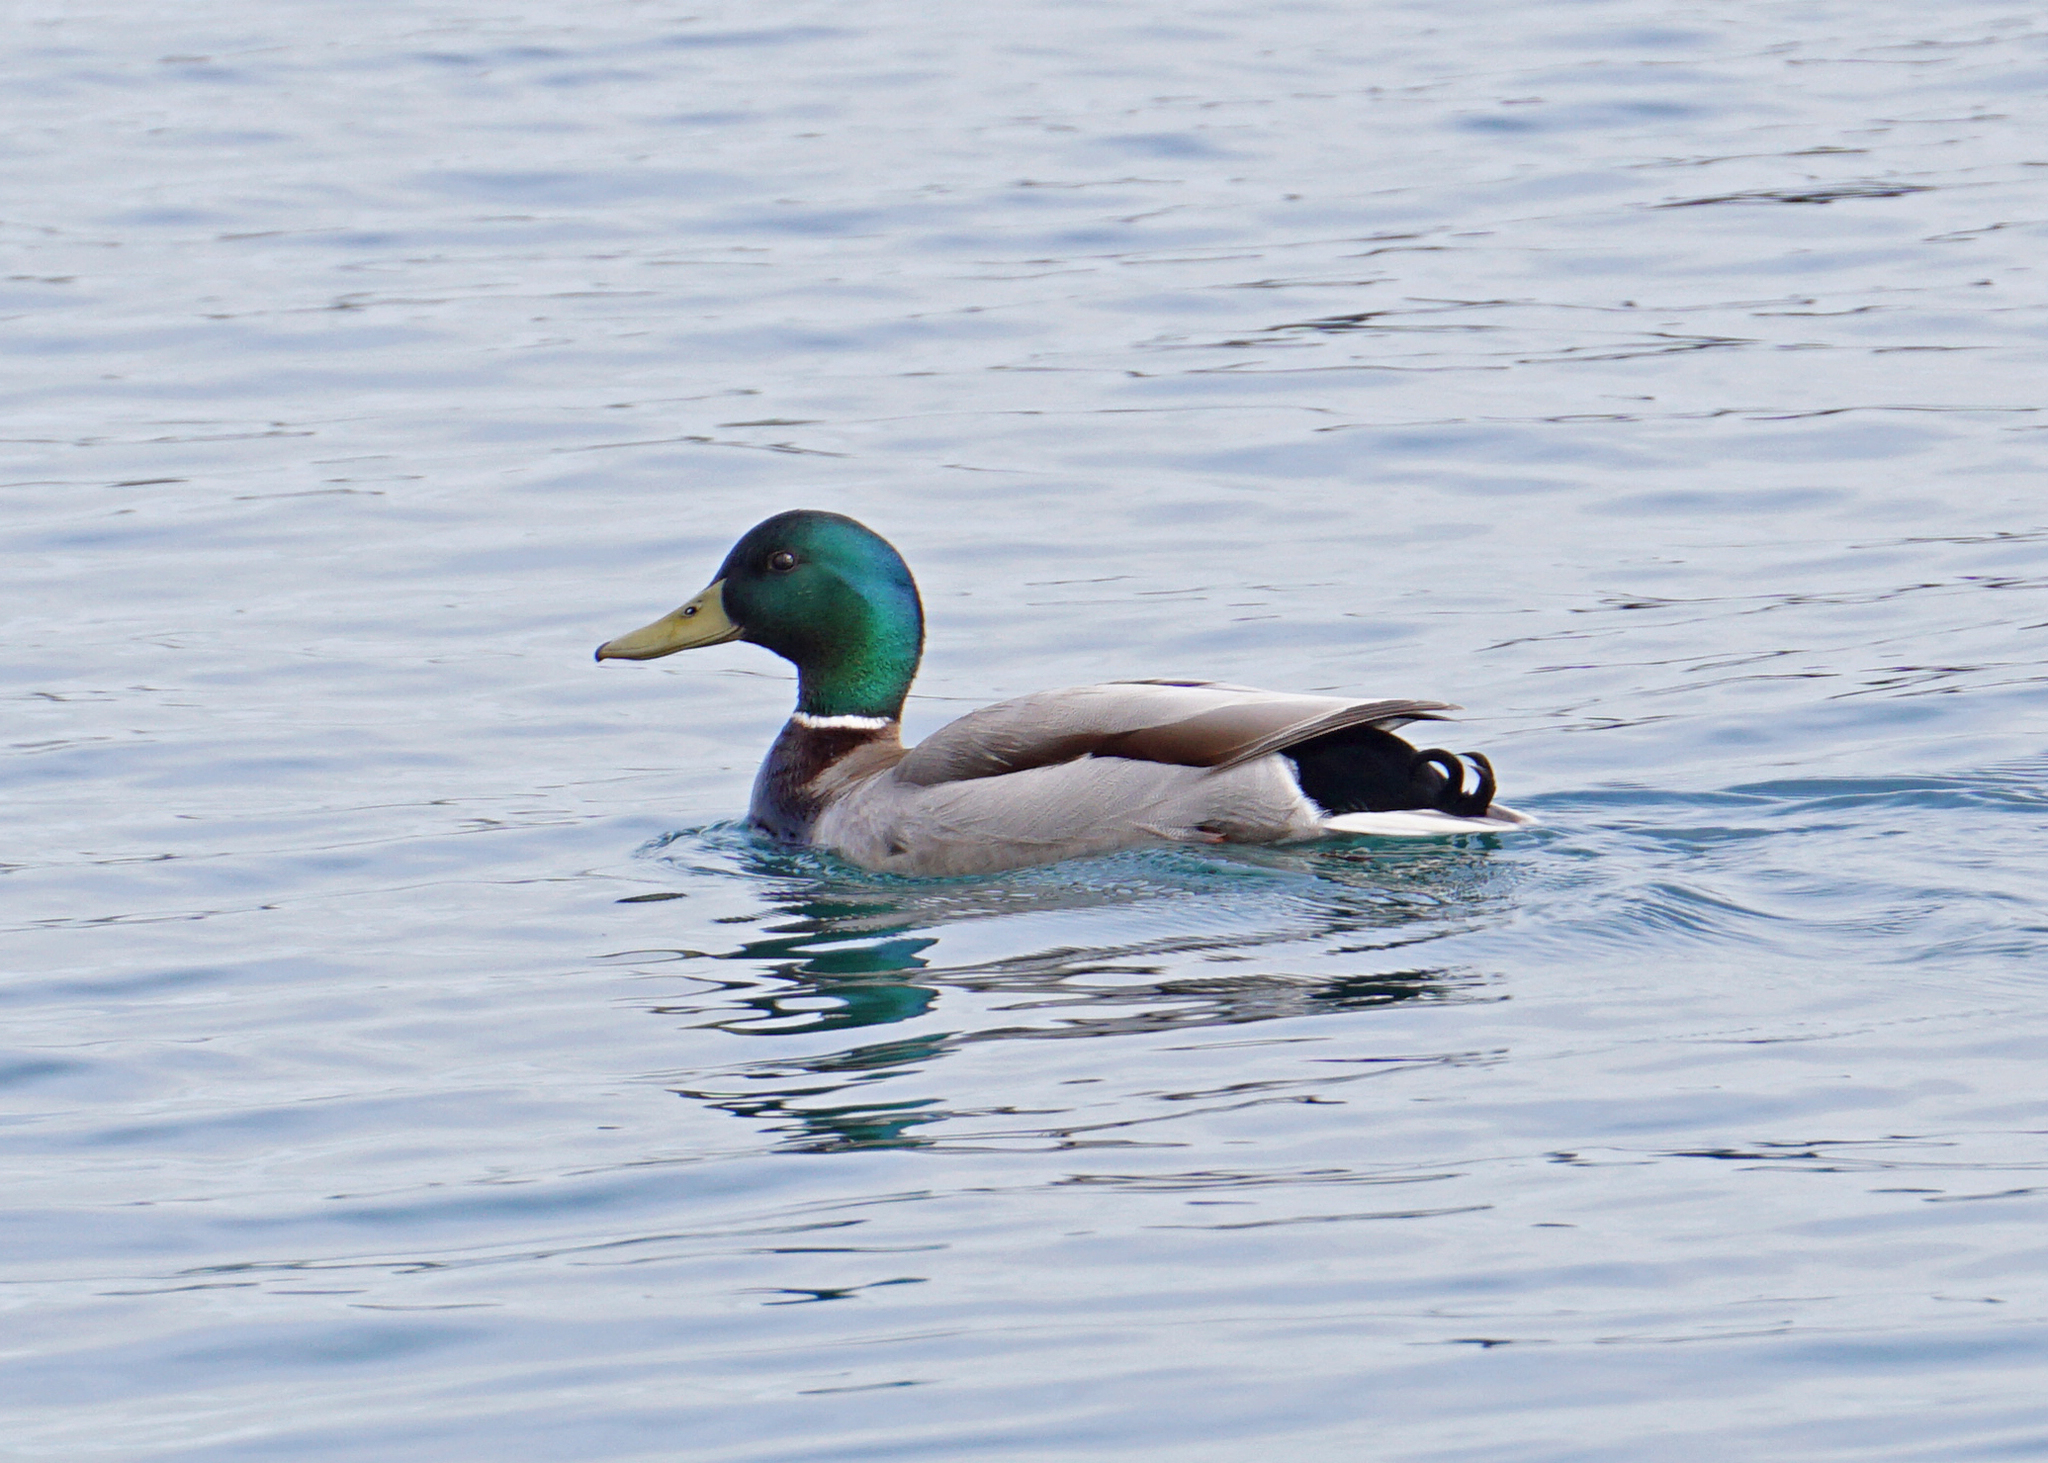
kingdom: Animalia
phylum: Chordata
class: Aves
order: Anseriformes
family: Anatidae
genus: Anas
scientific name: Anas platyrhynchos
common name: Mallard
